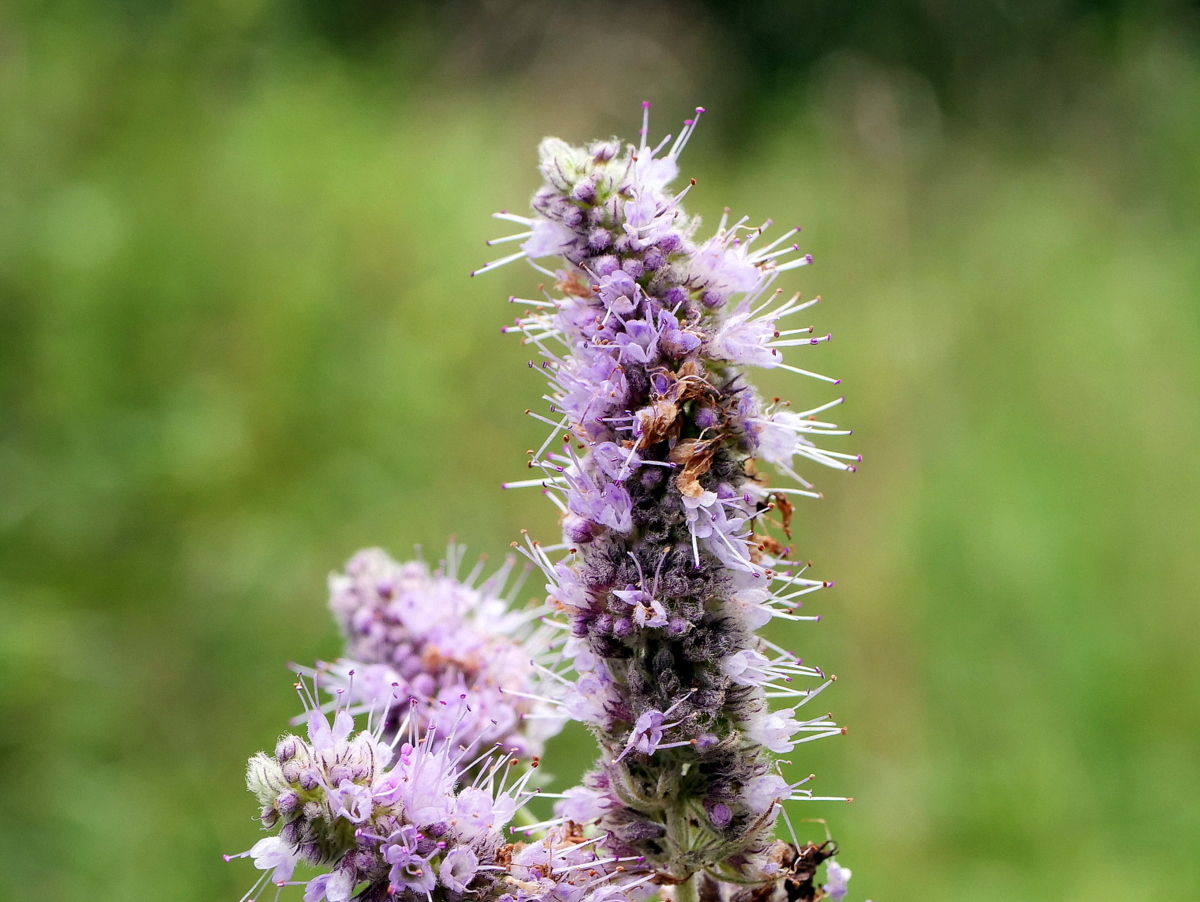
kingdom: Plantae
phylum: Tracheophyta
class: Magnoliopsida
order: Lamiales
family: Lamiaceae
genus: Mentha
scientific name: Mentha longifolia
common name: Horse mint
